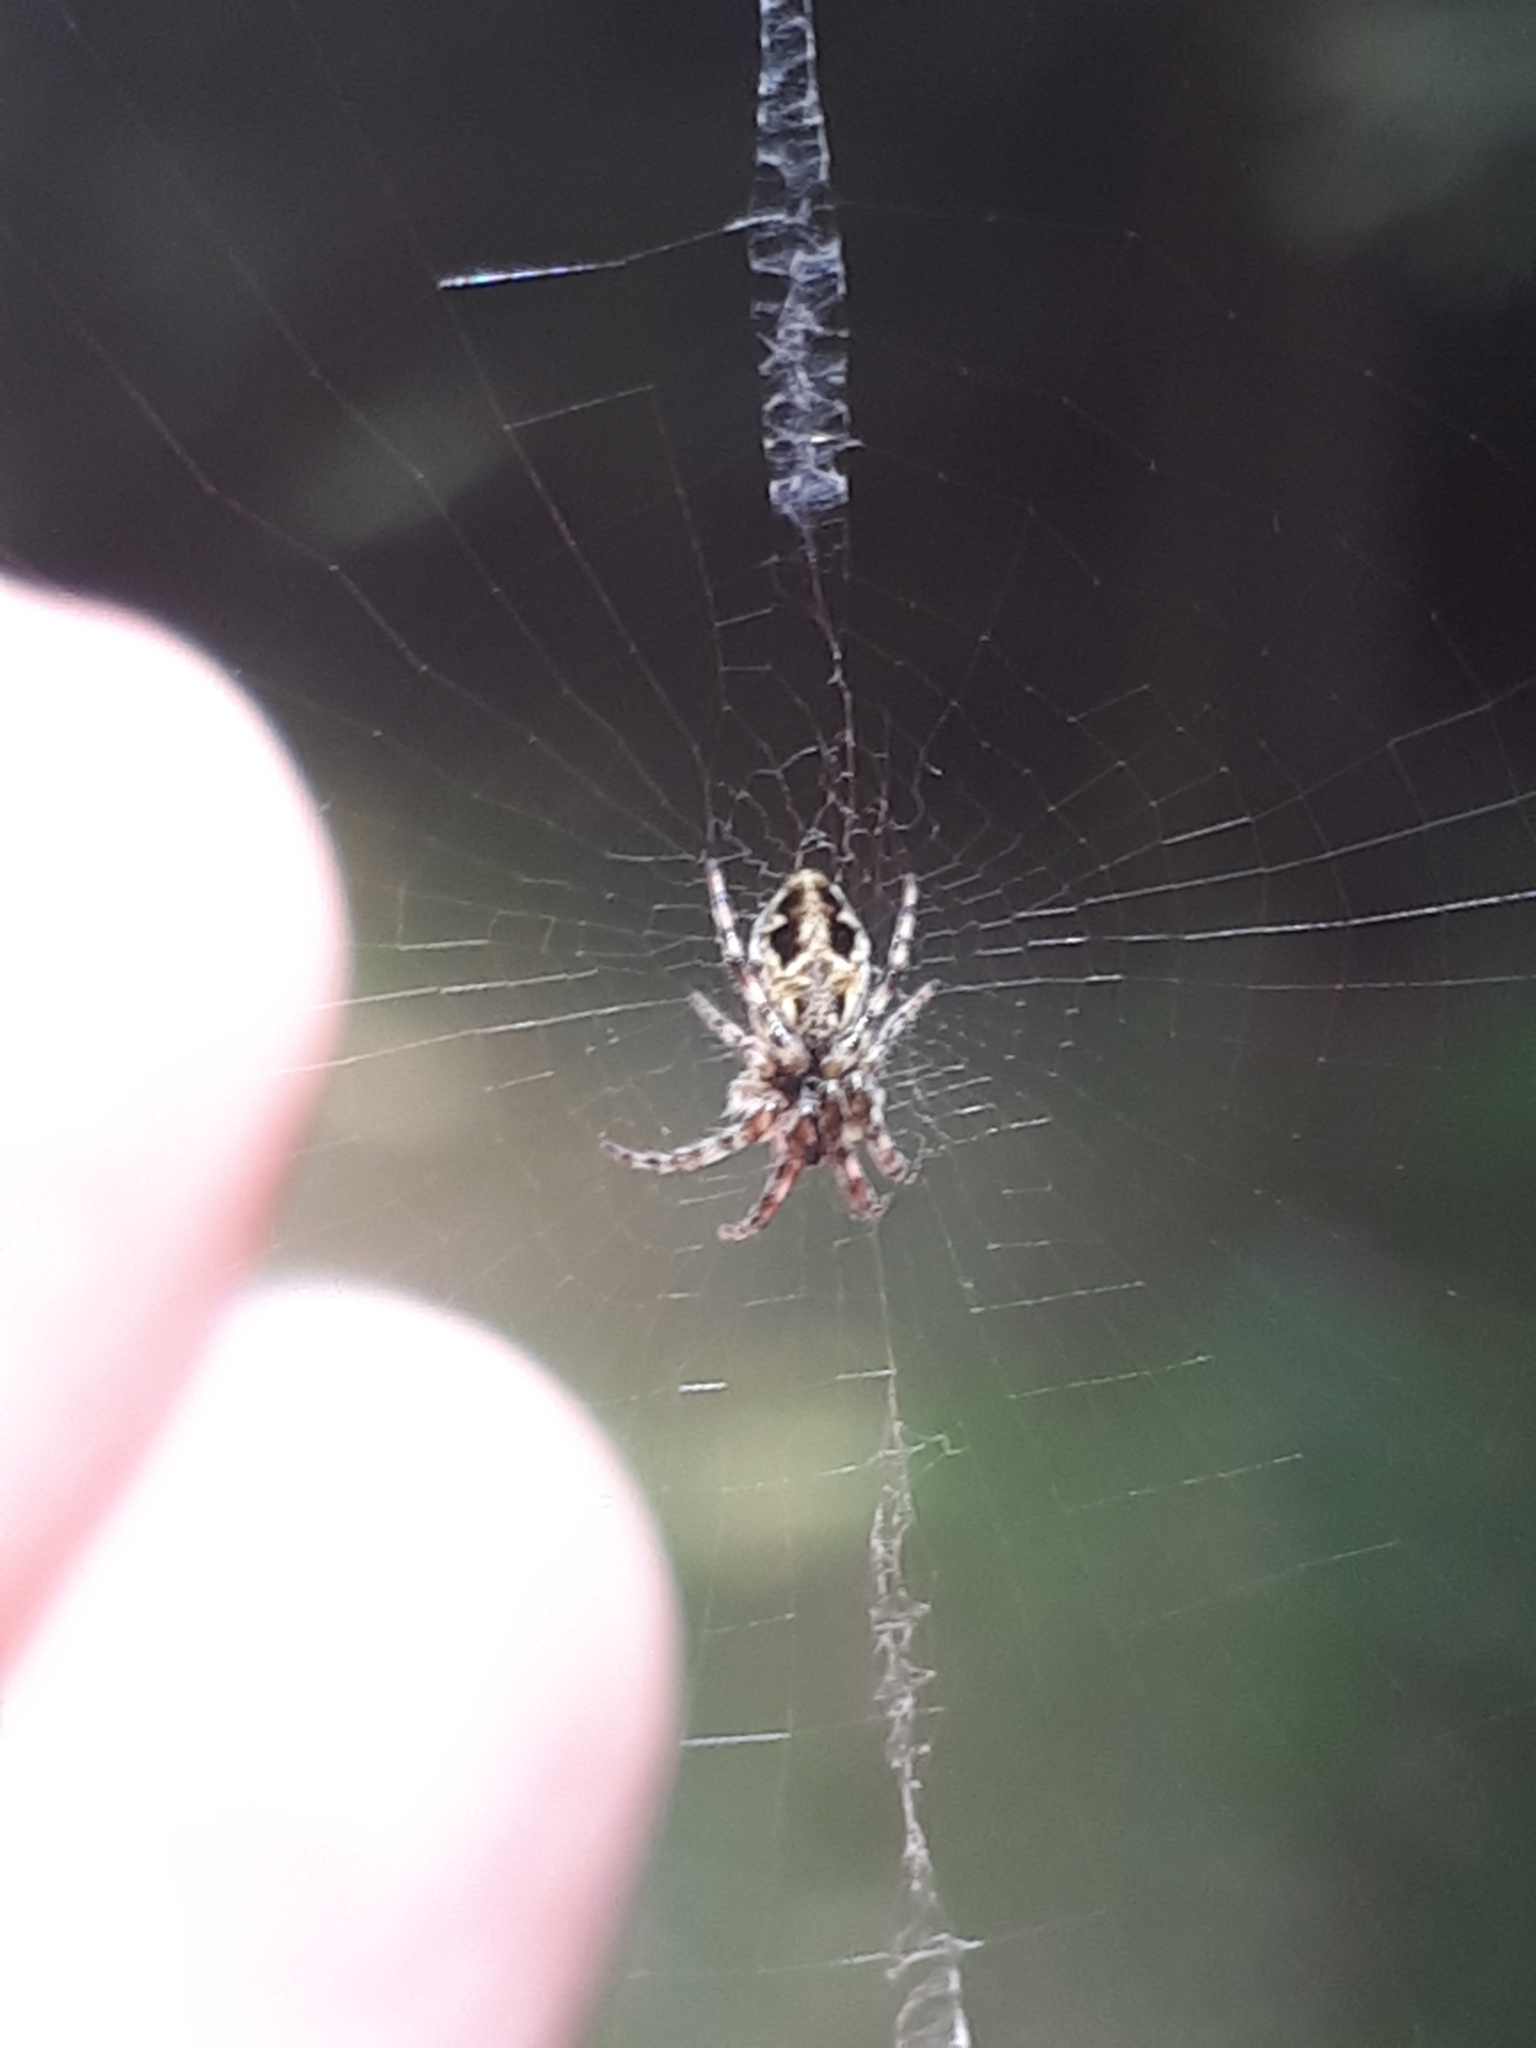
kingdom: Animalia
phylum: Arthropoda
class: Arachnida
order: Araneae
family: Araneidae
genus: Cyclosa
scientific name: Cyclosa conica
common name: Conical trashline orbweaver
